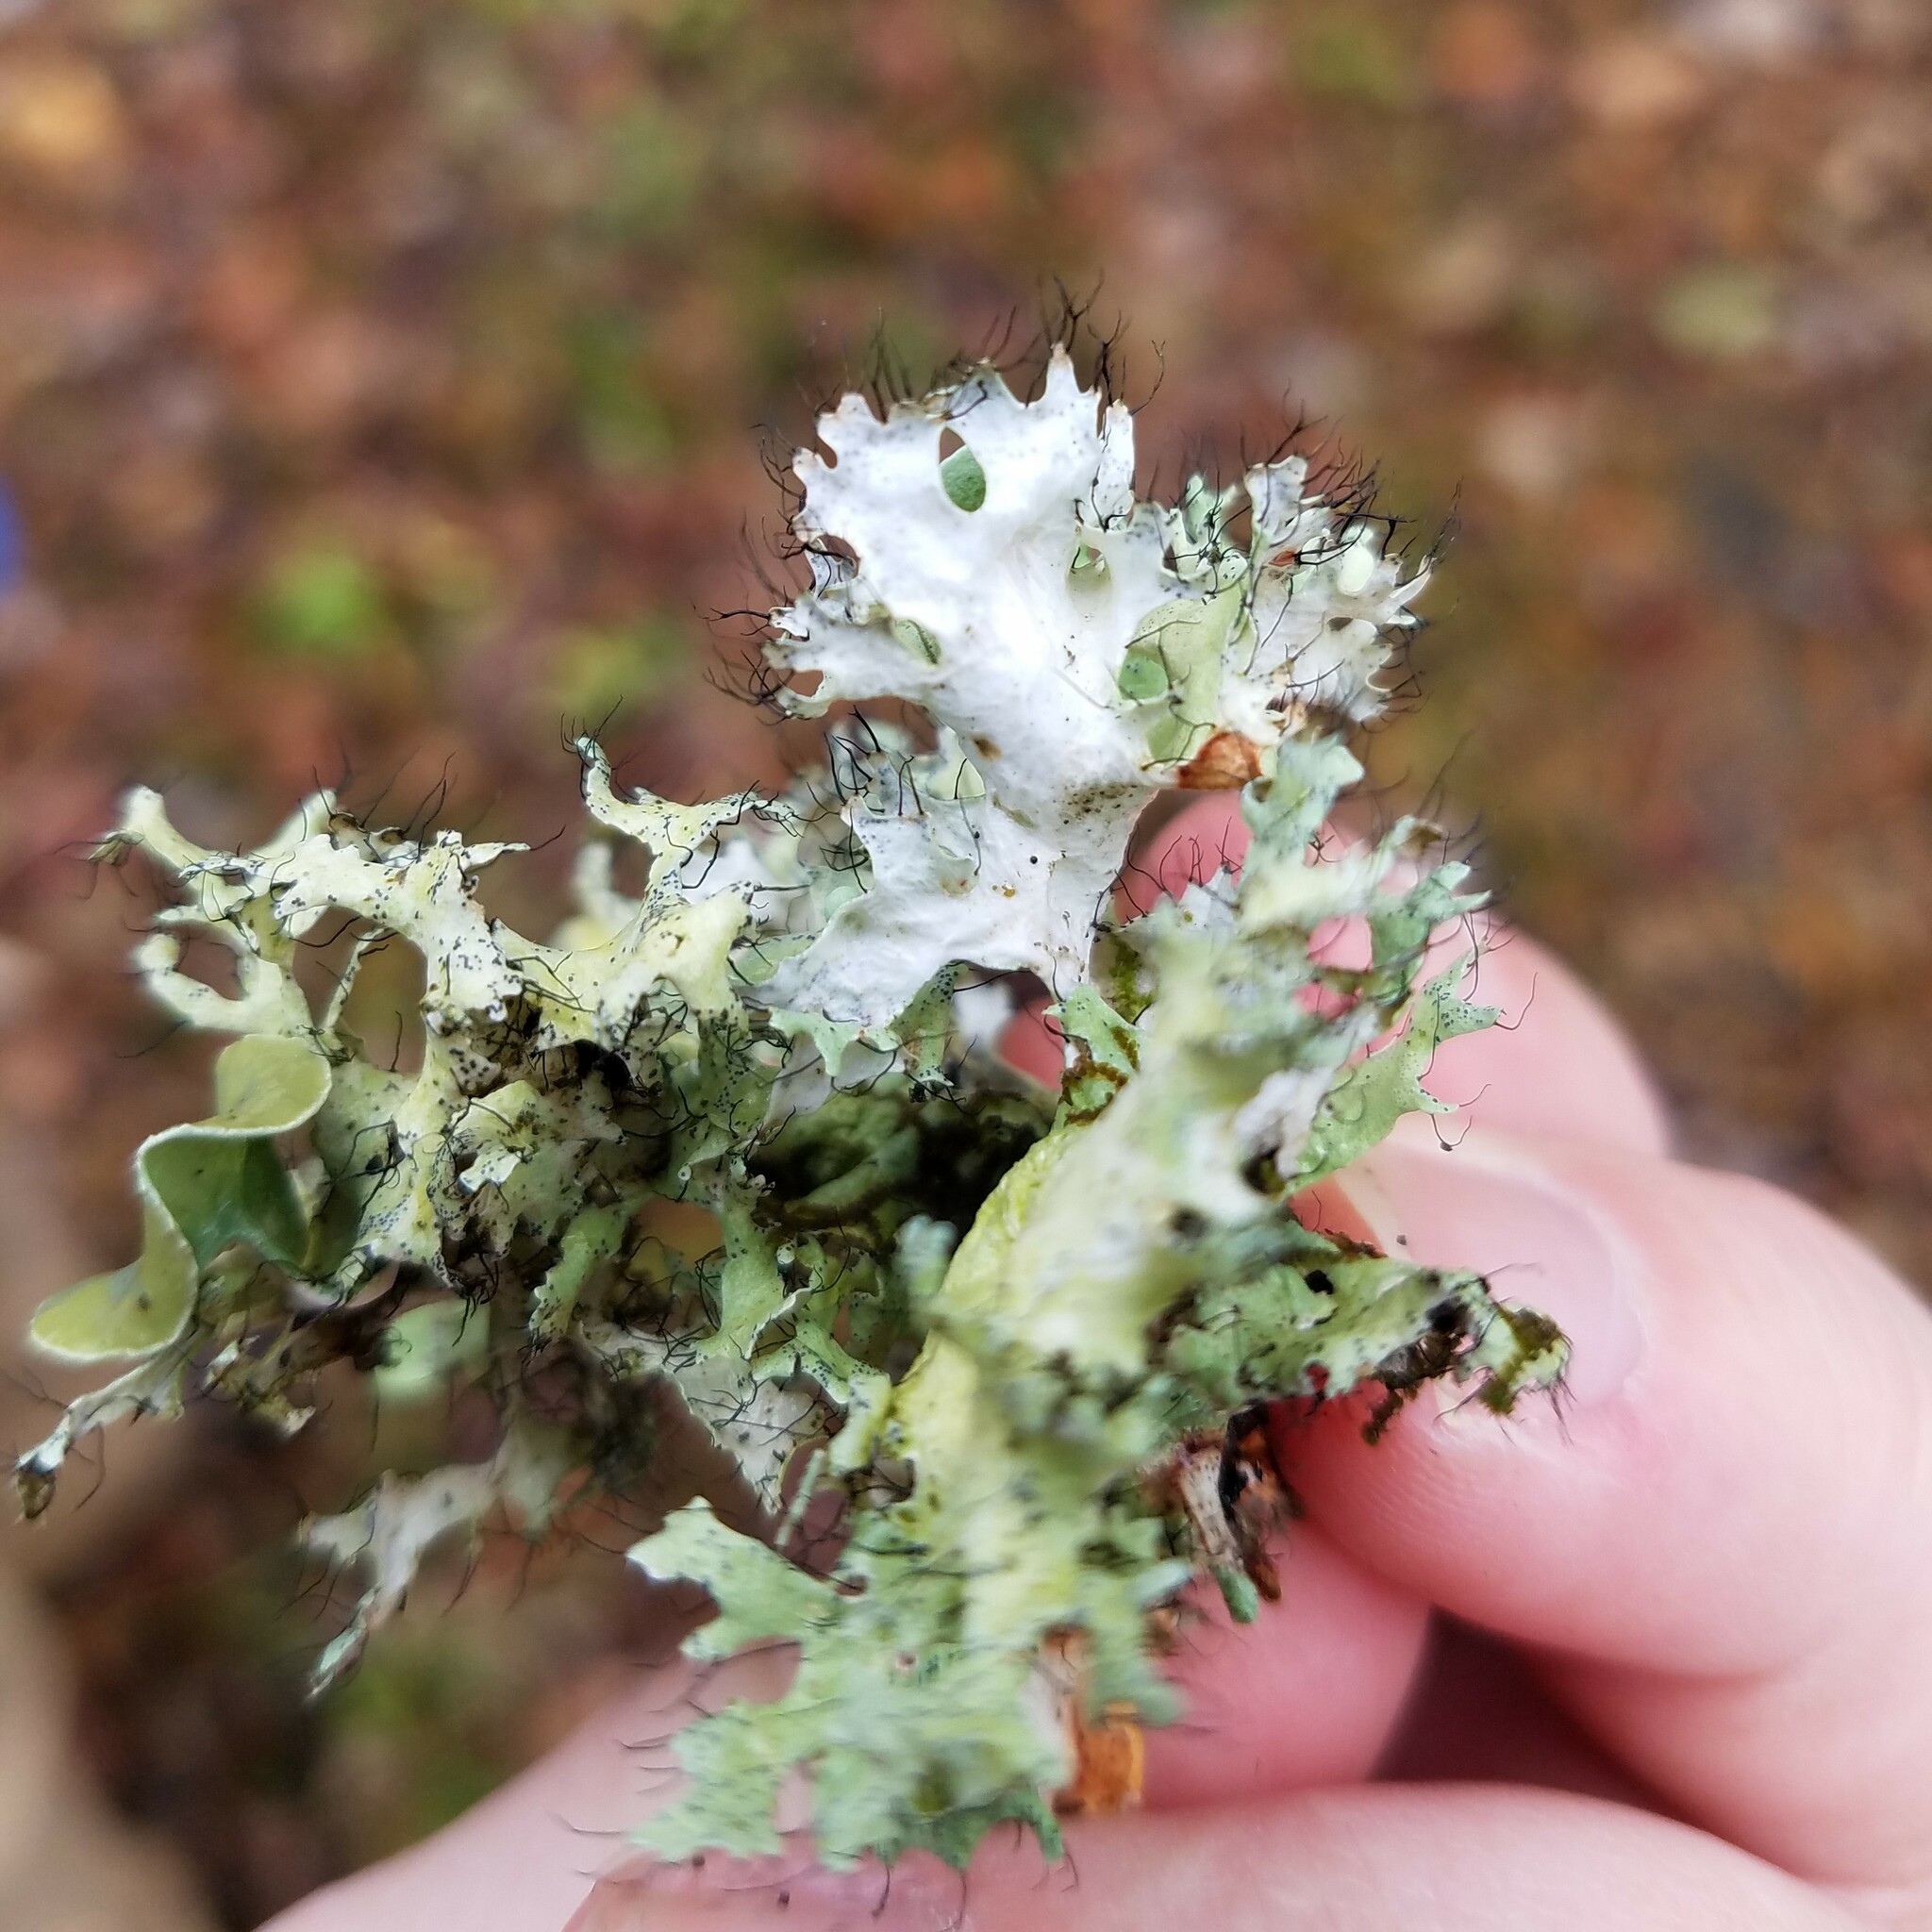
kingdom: Fungi
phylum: Ascomycota
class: Lecanoromycetes
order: Lecanorales
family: Parmeliaceae
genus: Parmotrema
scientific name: Parmotrema perforatum
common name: Perforated ruffle lichen
